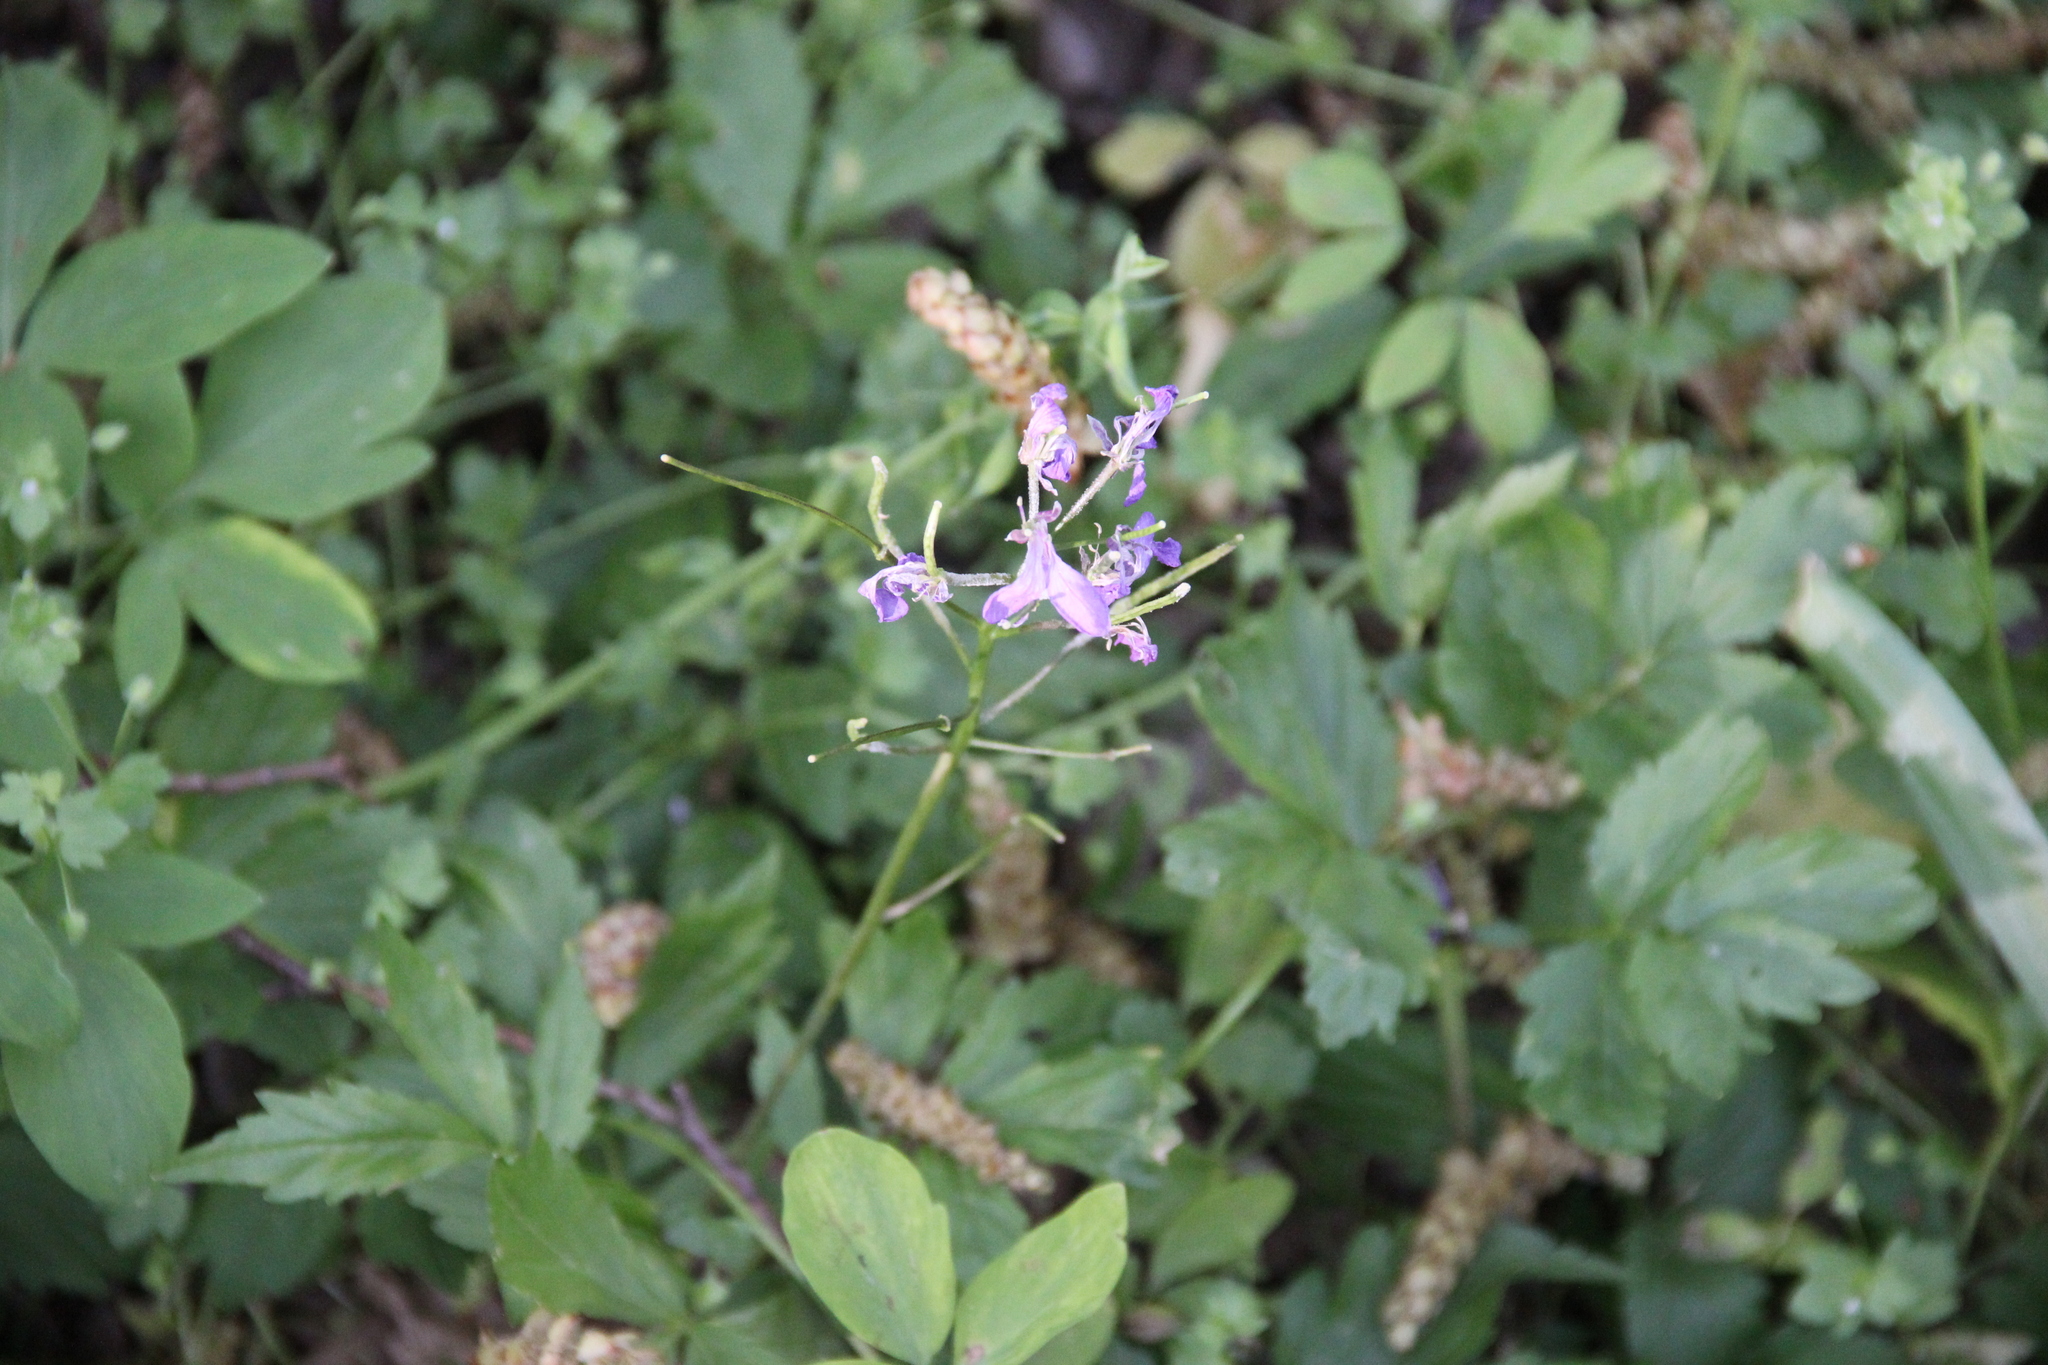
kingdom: Plantae
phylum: Tracheophyta
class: Magnoliopsida
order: Brassicales
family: Brassicaceae
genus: Cardamine
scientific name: Cardamine quinquefolia
